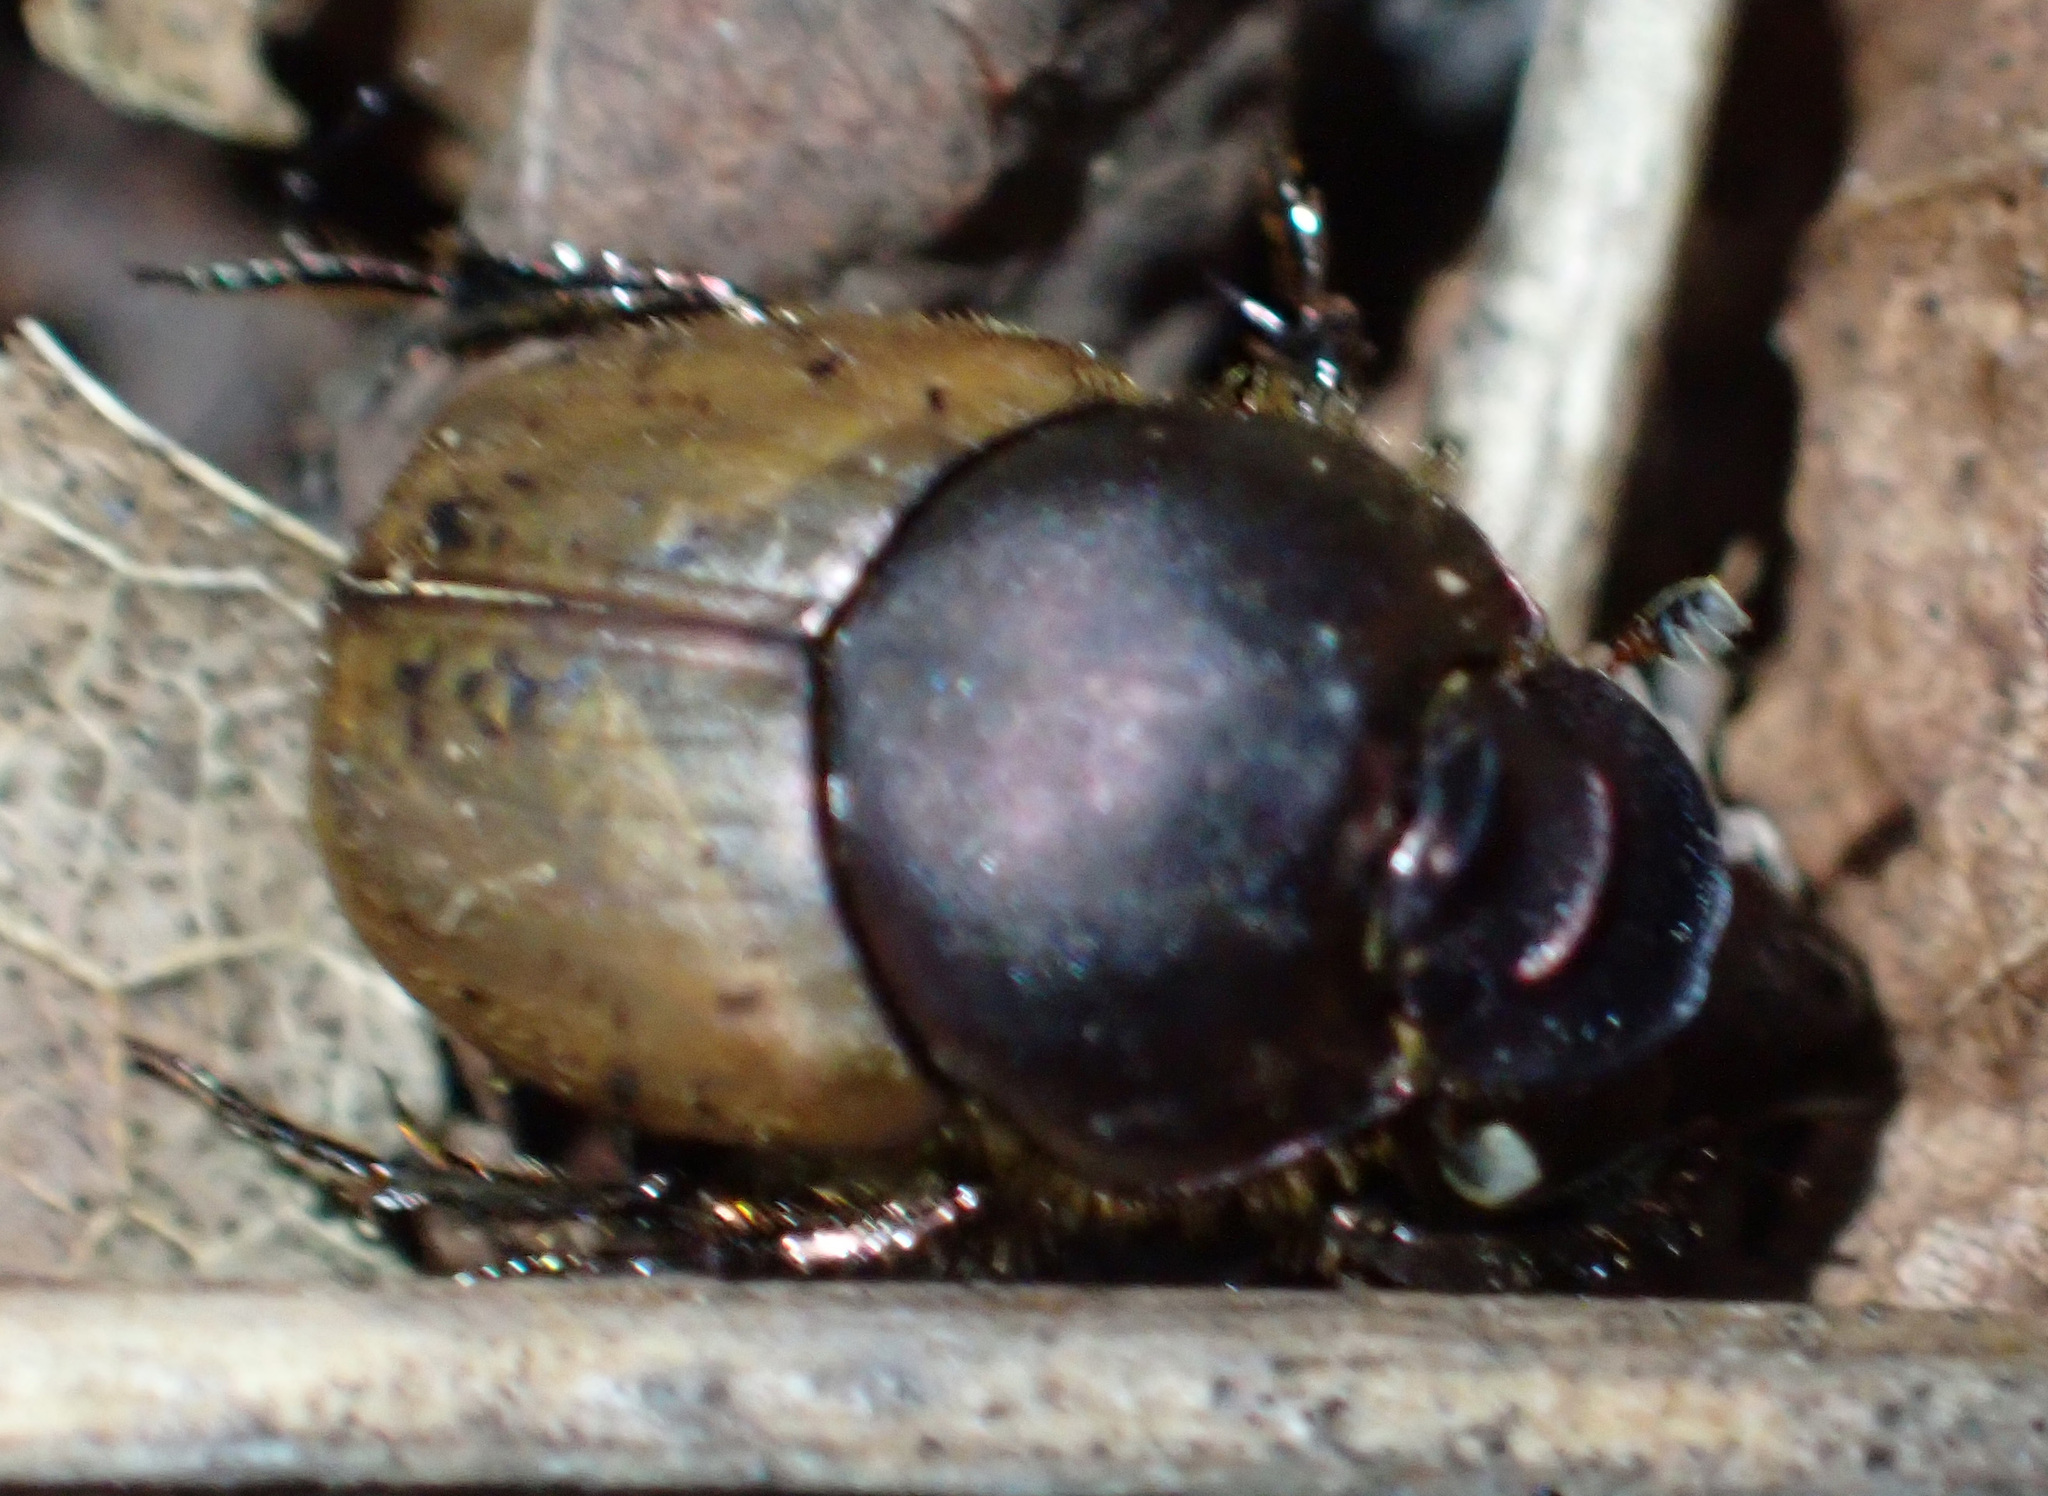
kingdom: Animalia
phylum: Arthropoda
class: Insecta
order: Coleoptera
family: Scarabaeidae
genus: Onthophagus
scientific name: Onthophagus coenobita
